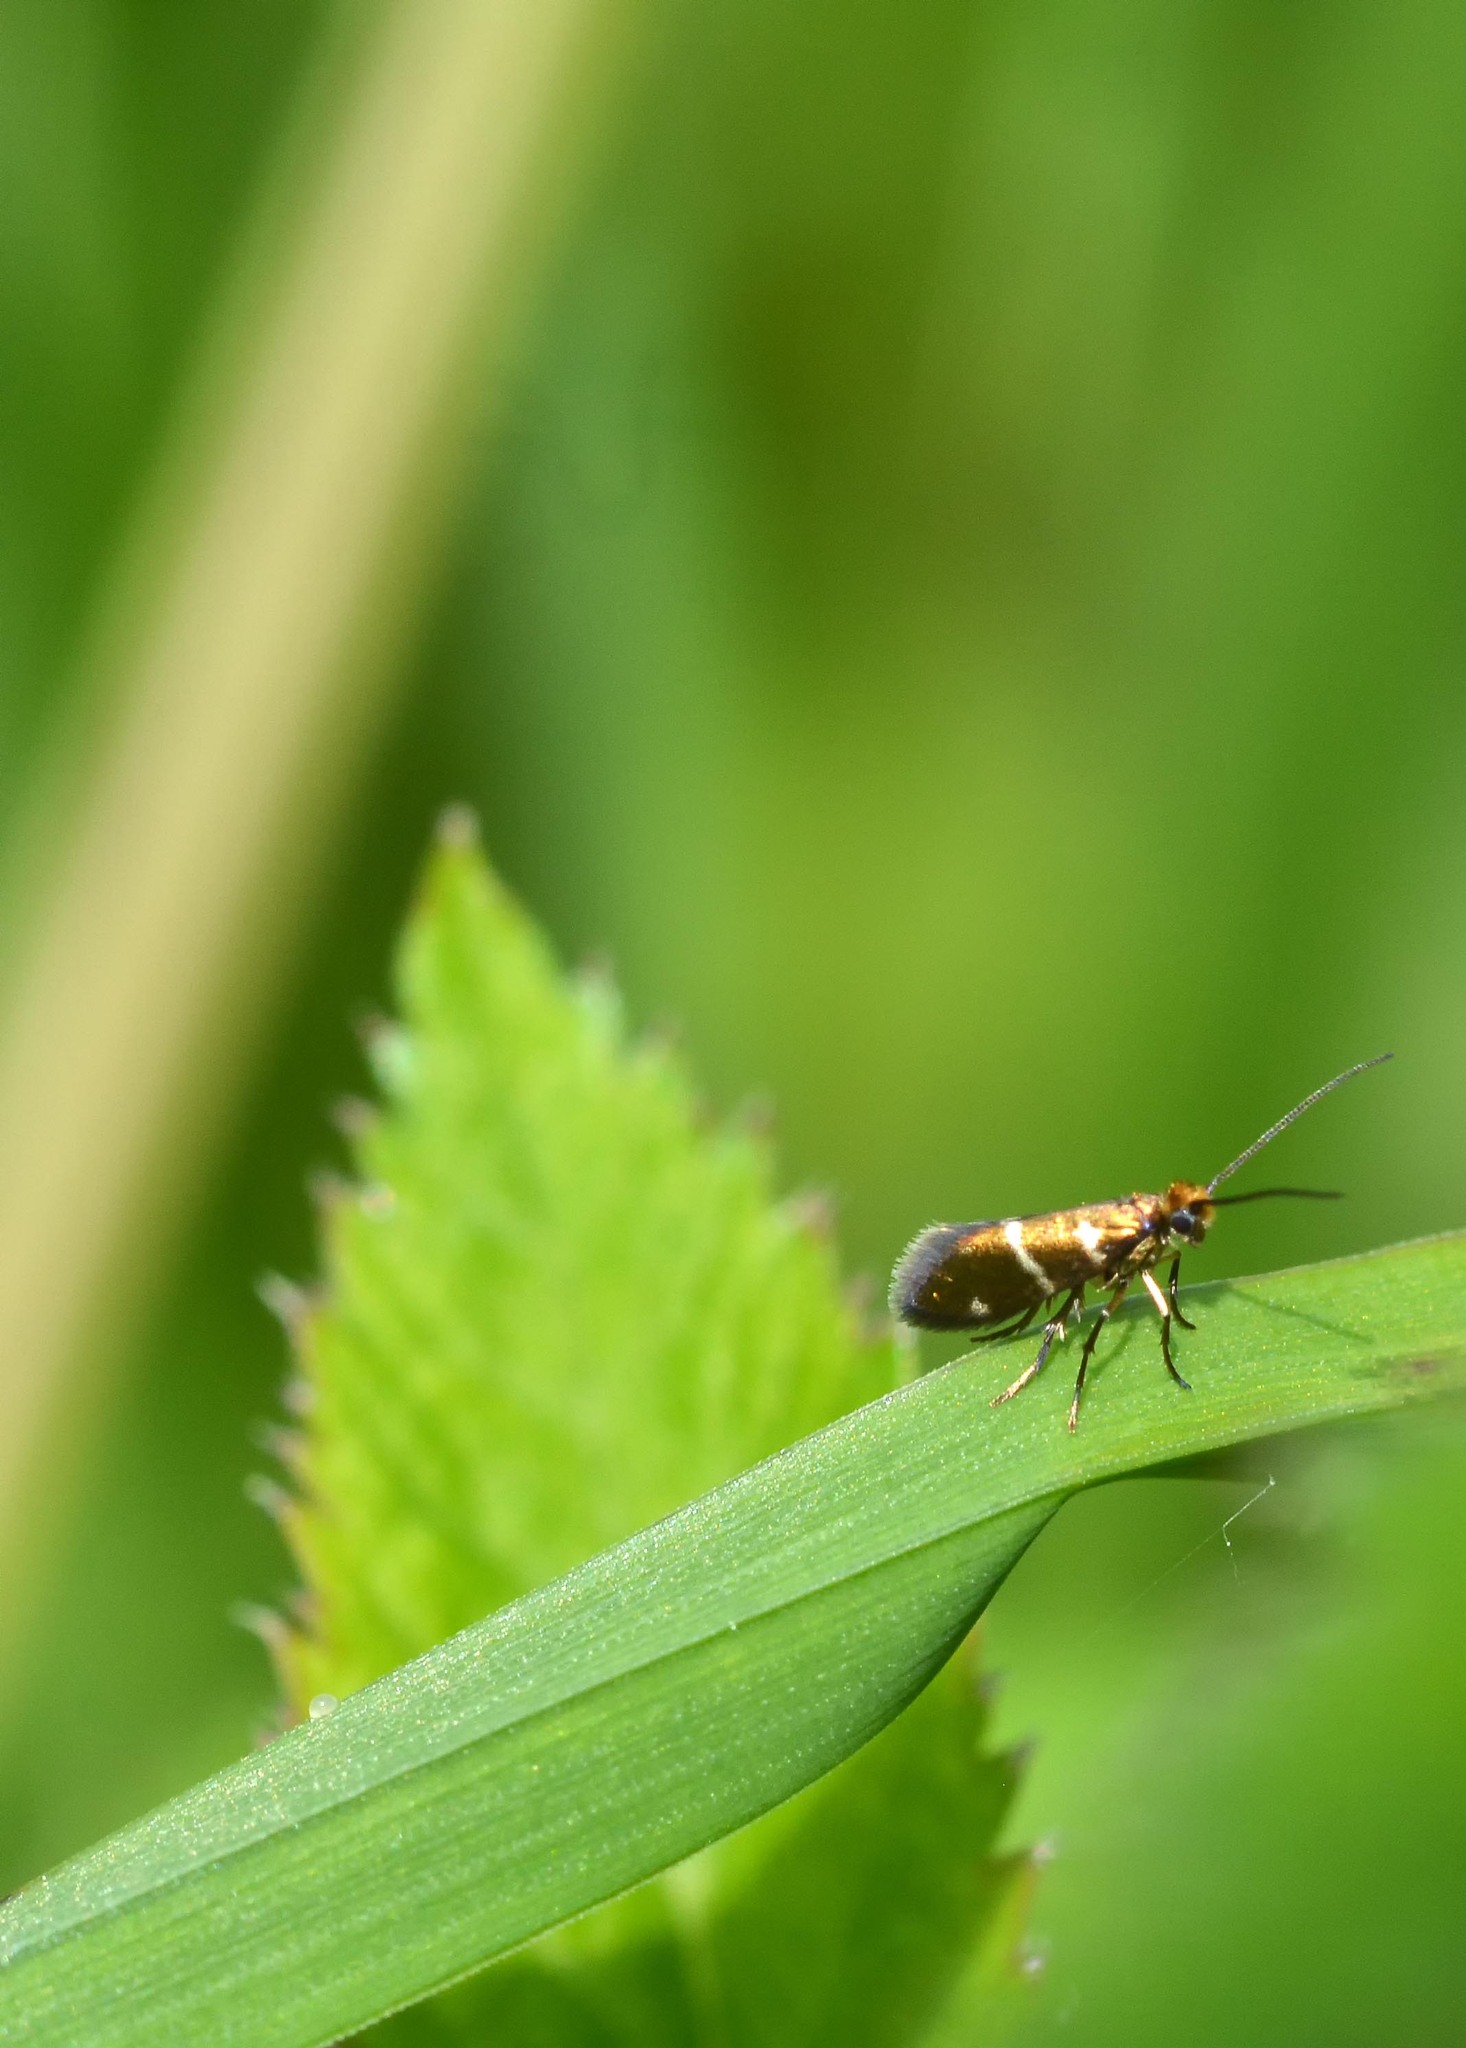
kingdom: Animalia
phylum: Arthropoda
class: Insecta
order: Lepidoptera
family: Micropterigidae
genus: Micropterix
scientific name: Micropterix aruncella
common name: White-barred gold
